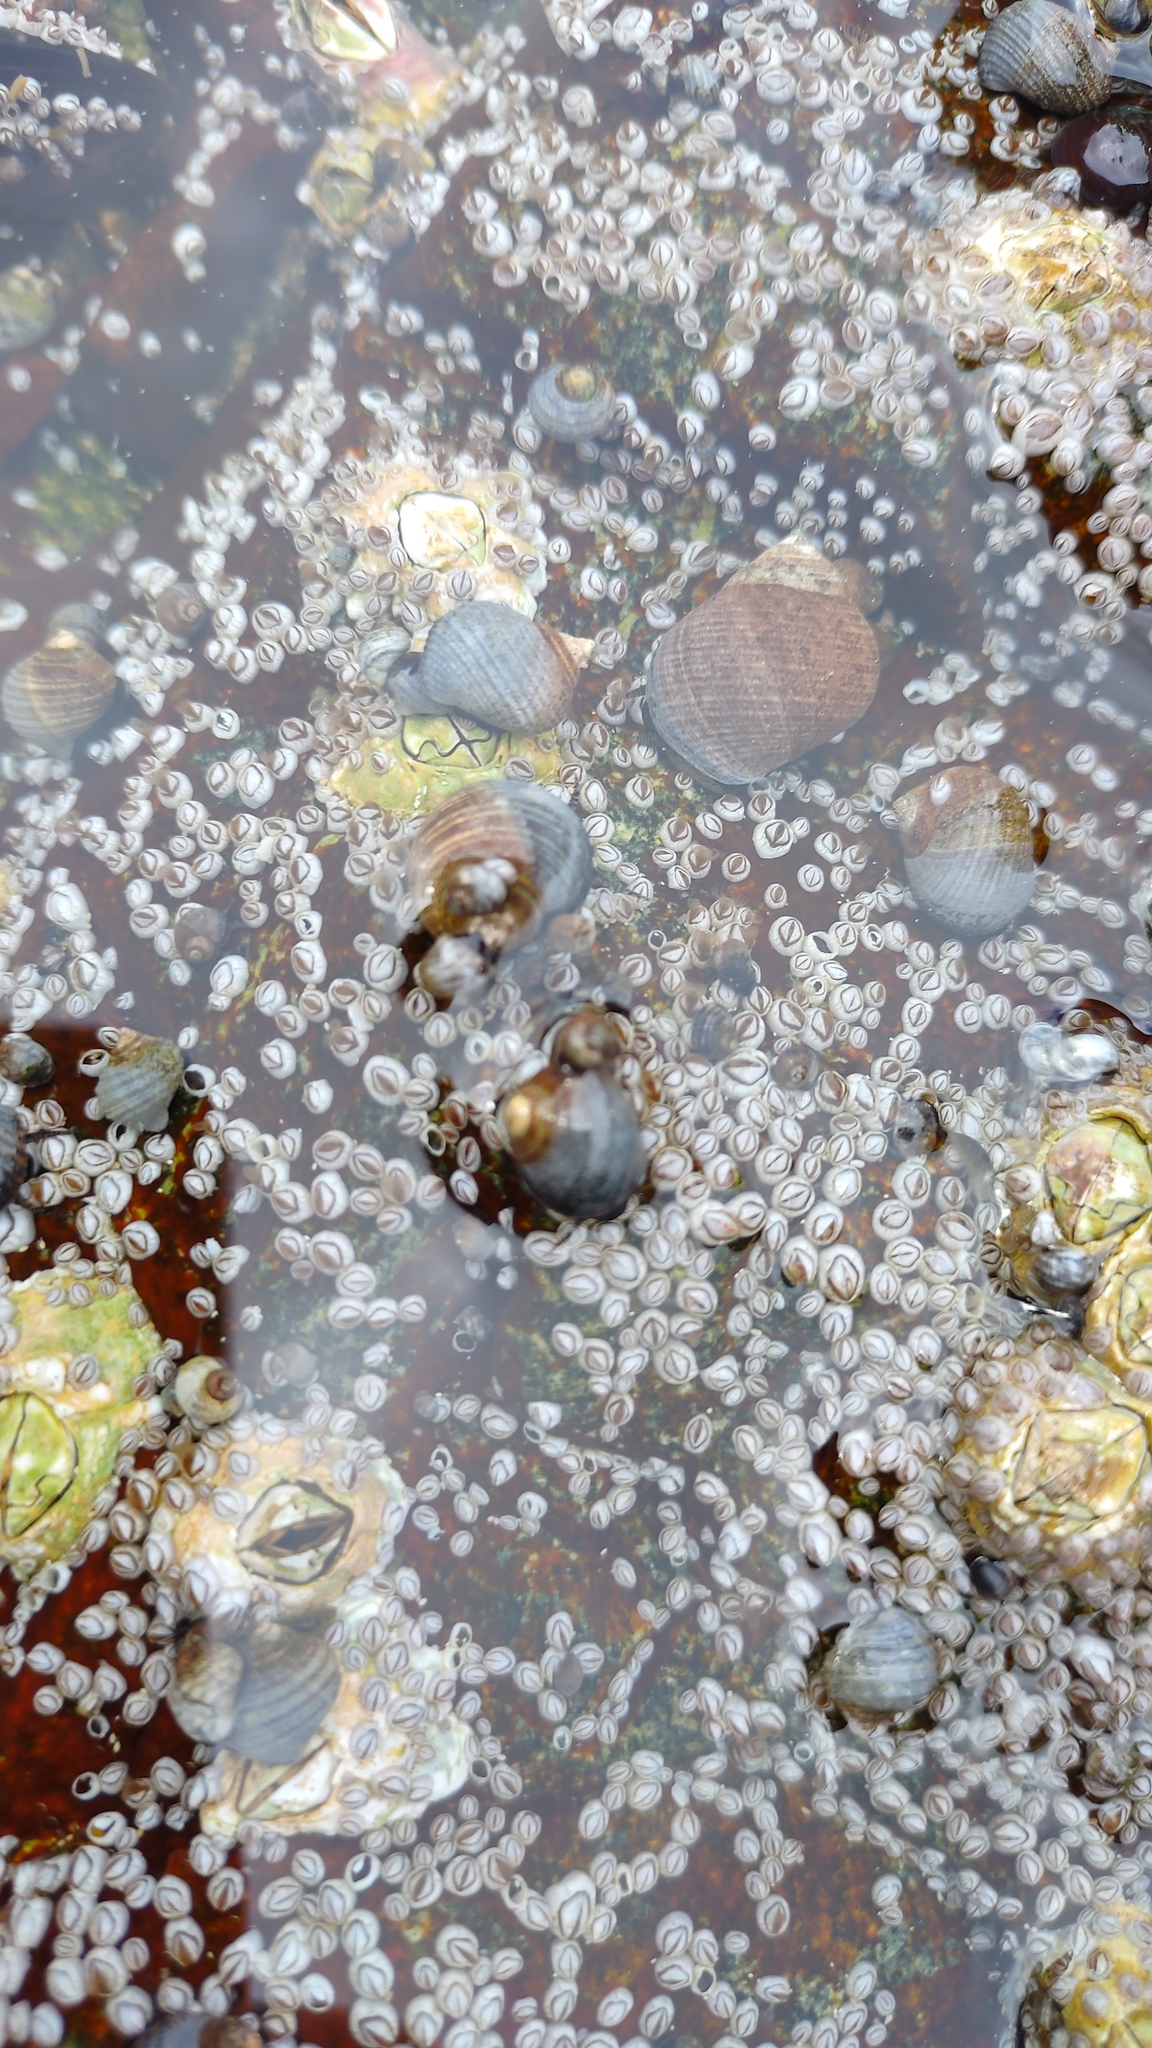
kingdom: Animalia
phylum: Mollusca
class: Gastropoda
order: Littorinimorpha
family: Littorinidae
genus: Littorina
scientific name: Littorina littorea
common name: Common periwinkle
